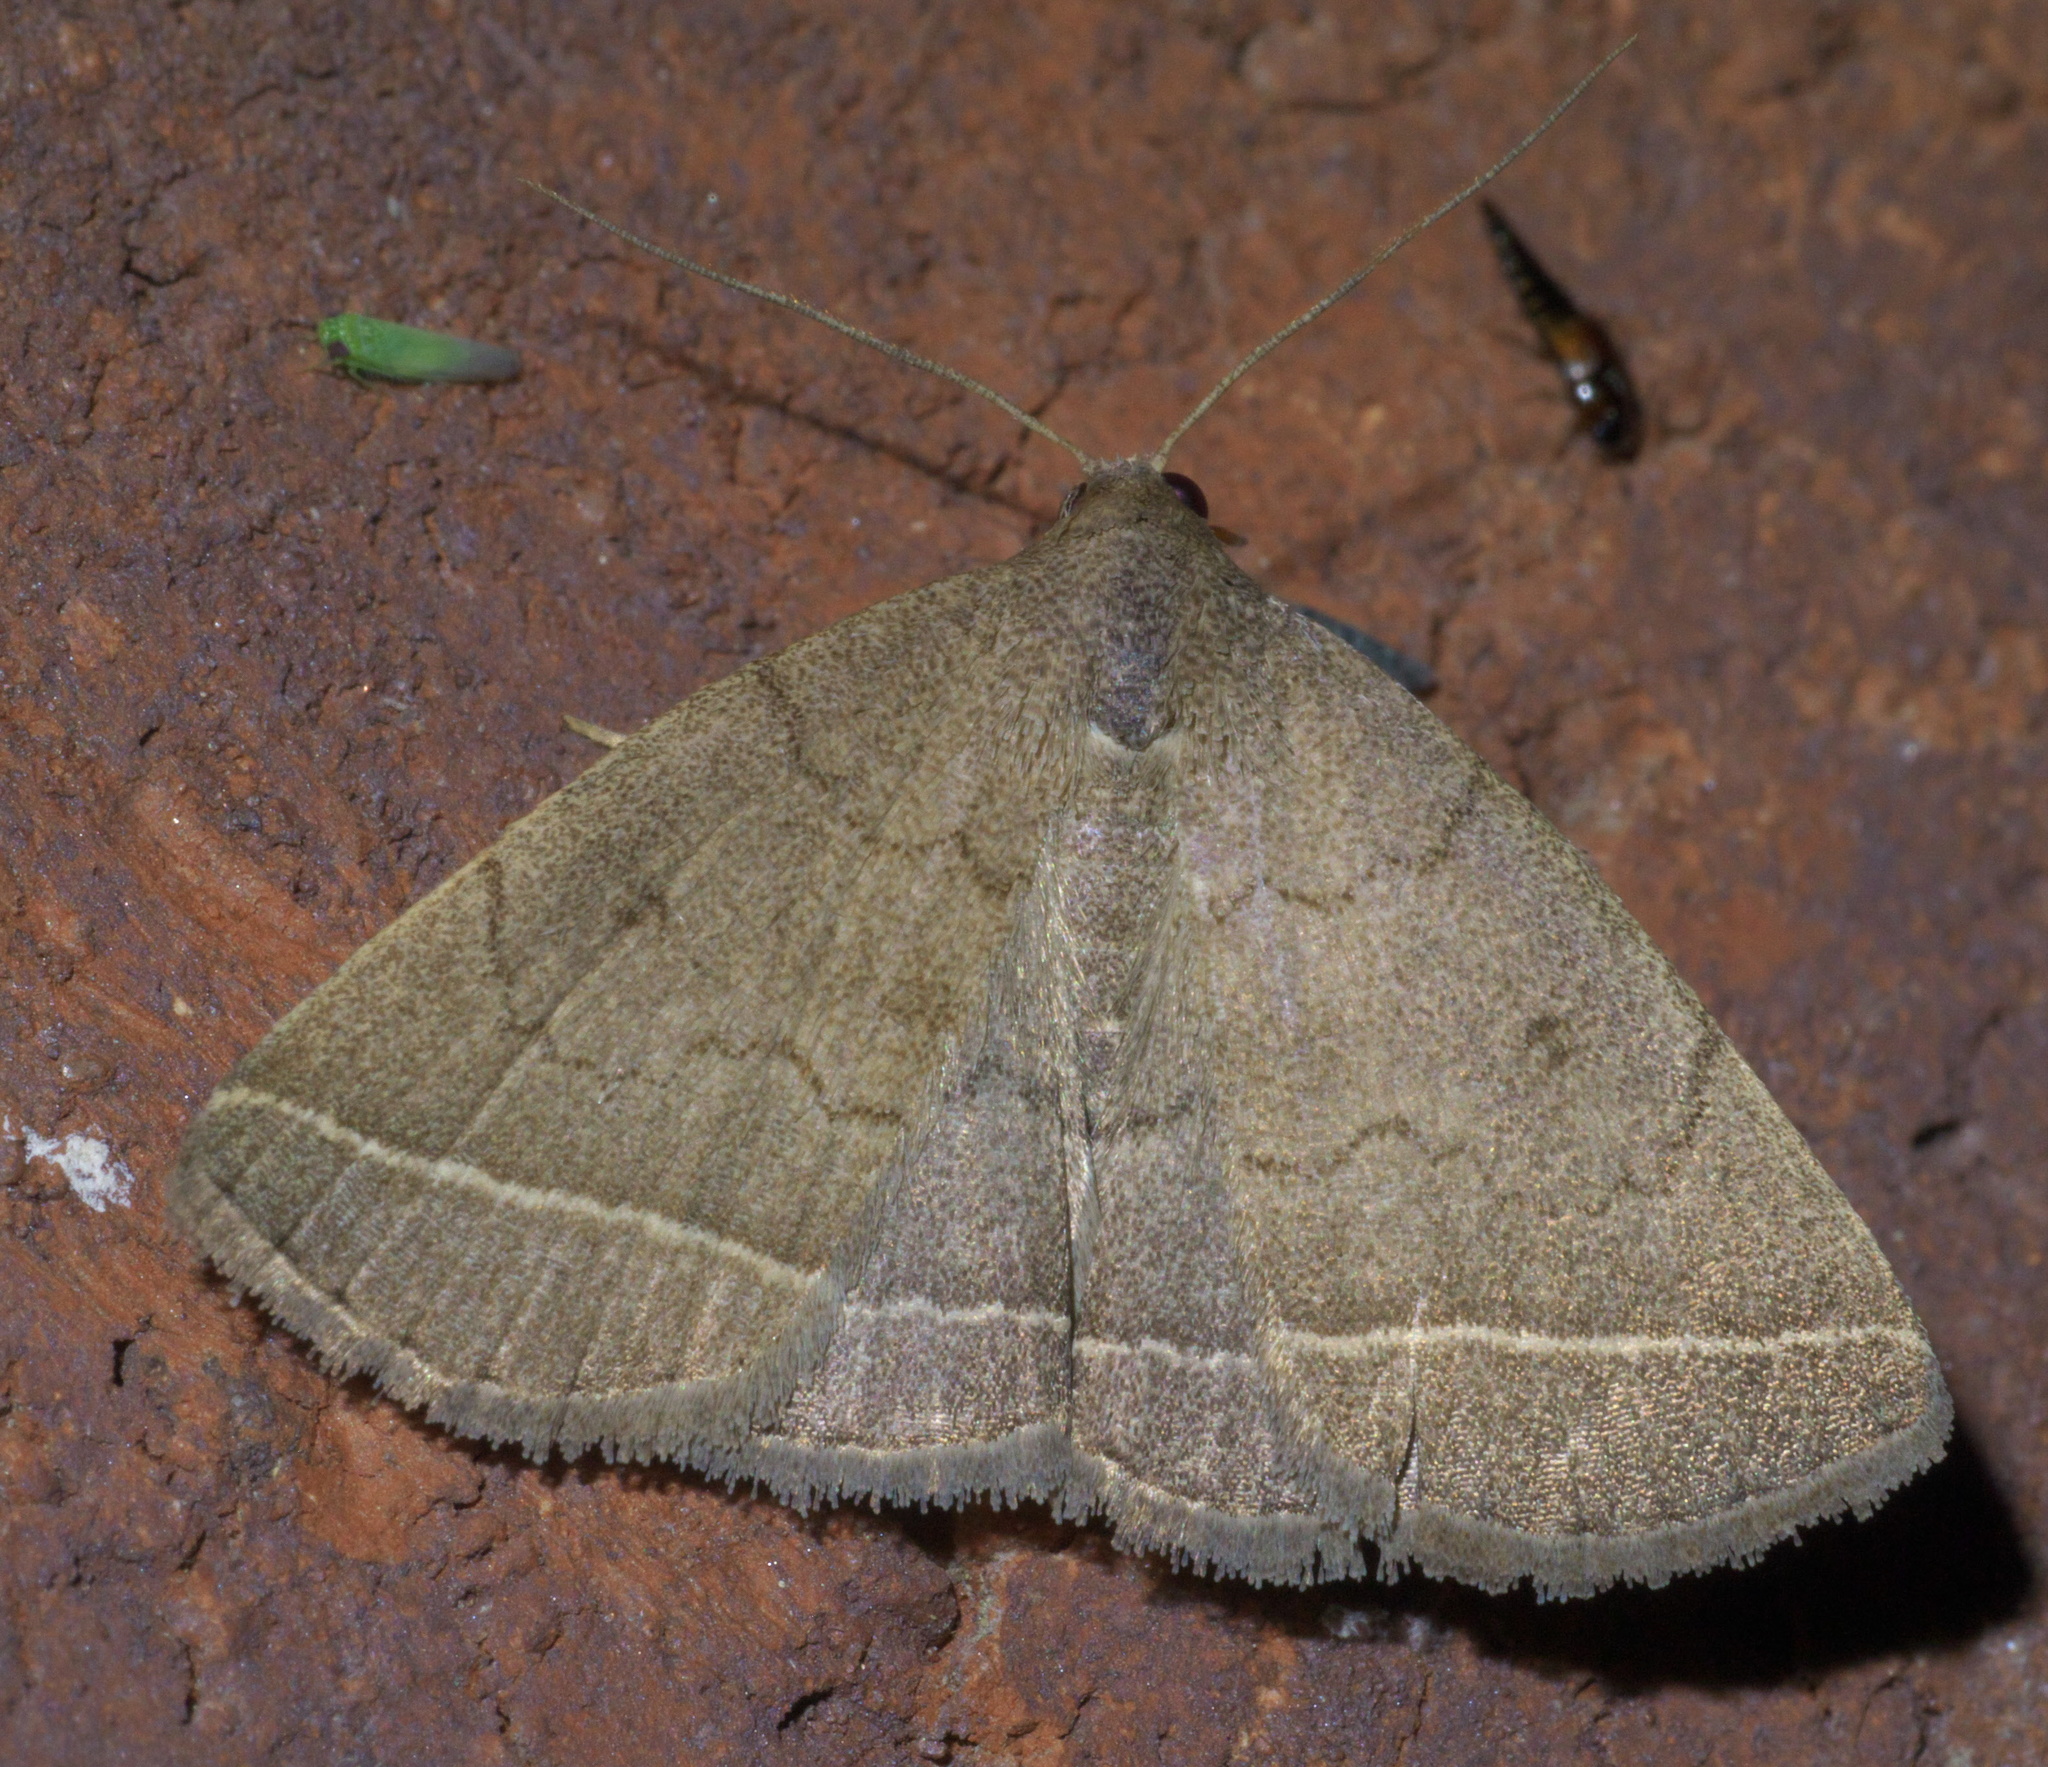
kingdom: Animalia
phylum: Arthropoda
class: Insecta
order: Lepidoptera
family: Erebidae
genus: Zanclognatha
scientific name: Zanclognatha marcidilinea
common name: Yellowish fan-foot
